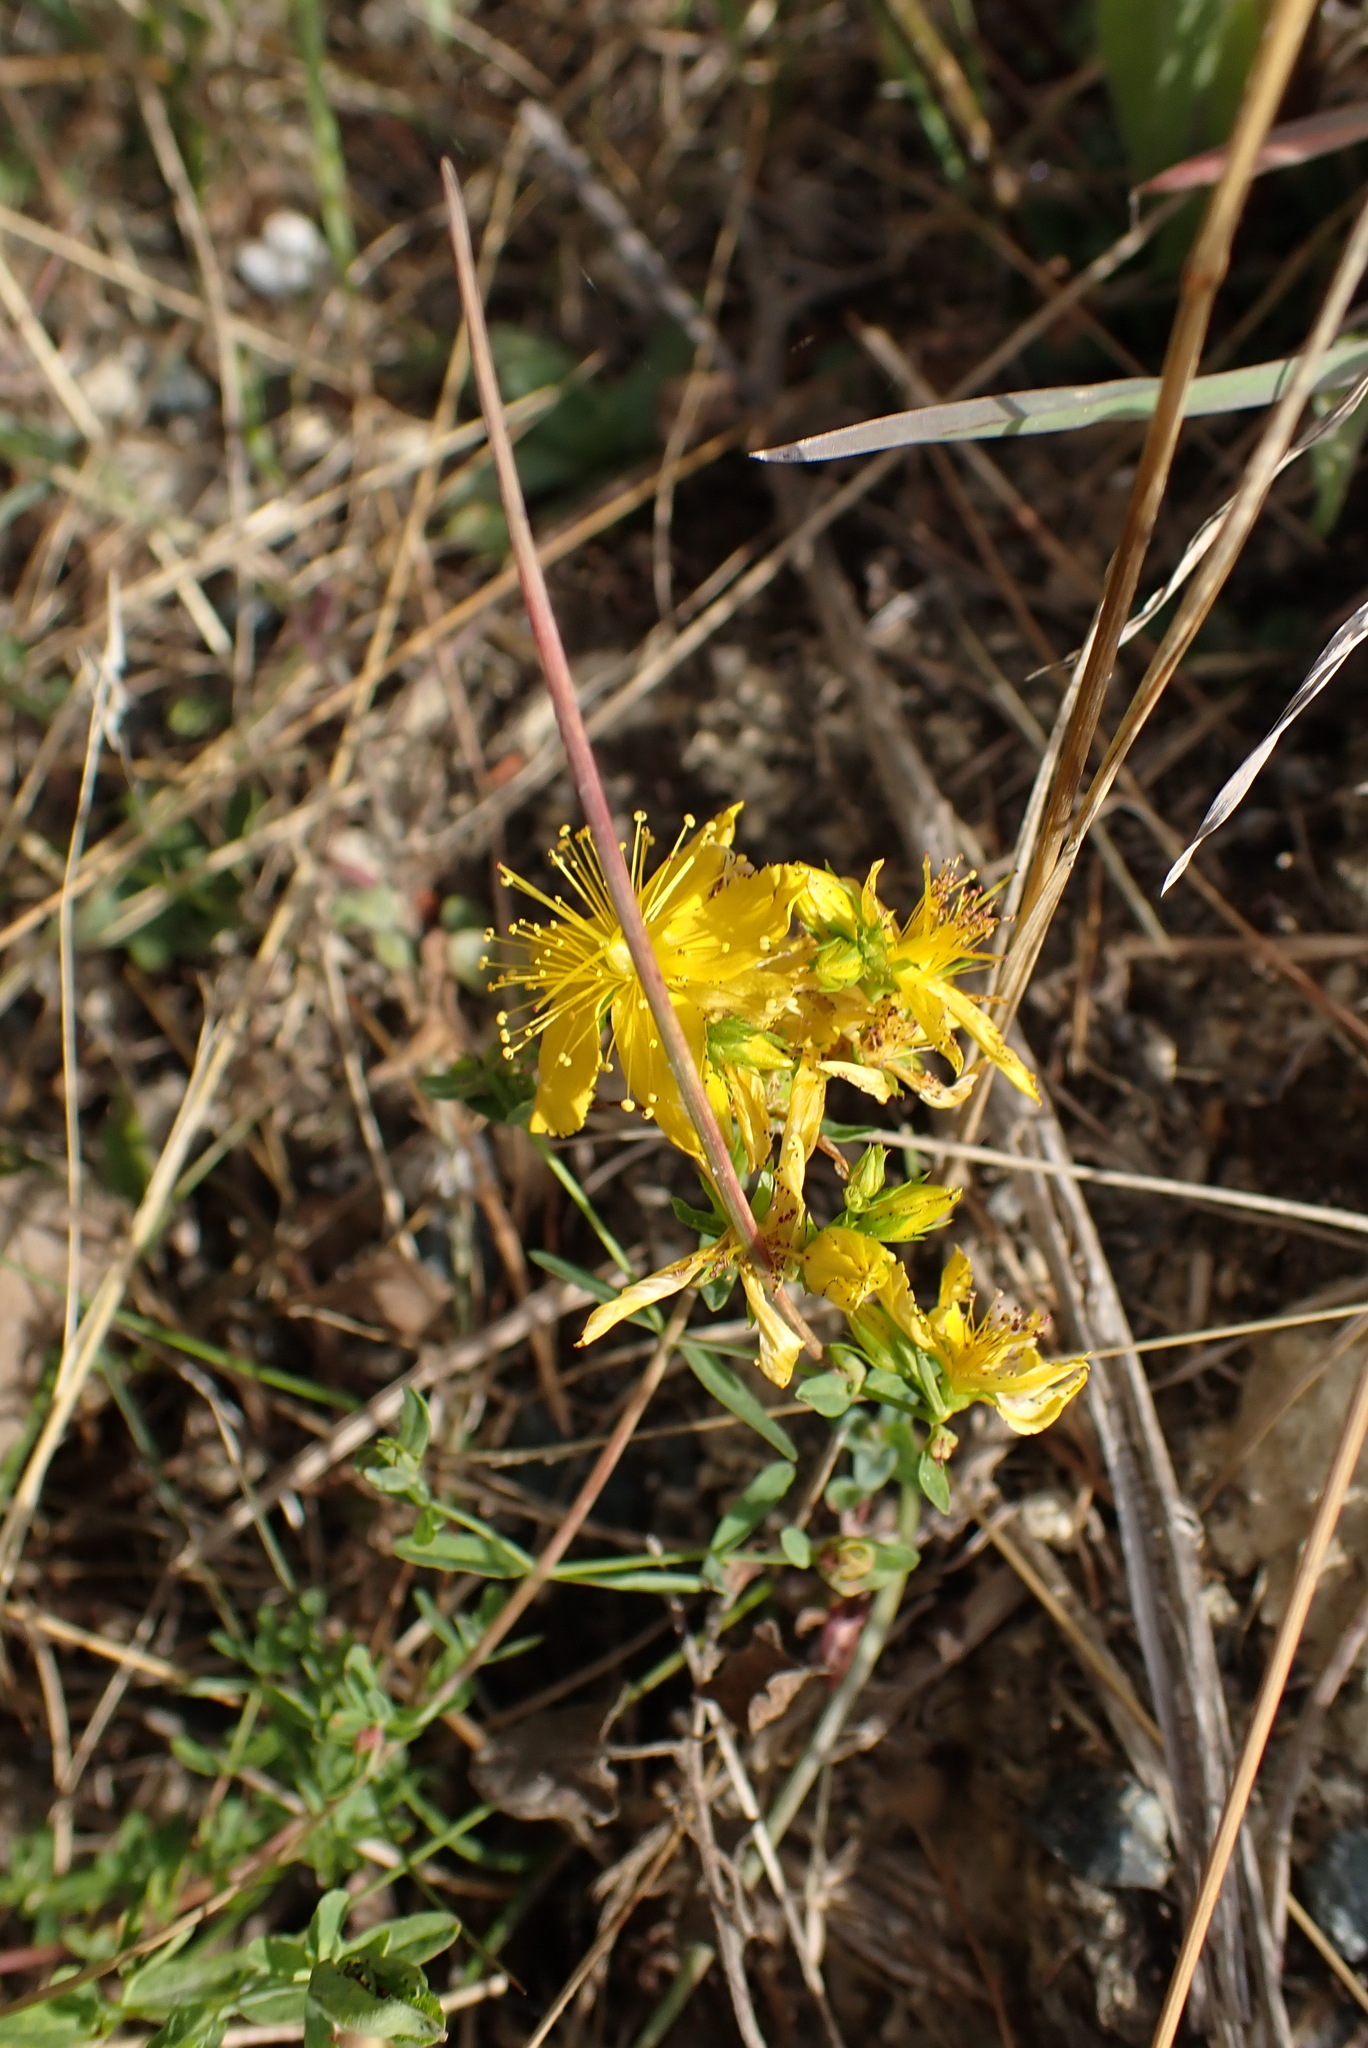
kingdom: Plantae
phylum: Tracheophyta
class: Magnoliopsida
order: Malpighiales
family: Hypericaceae
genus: Hypericum
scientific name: Hypericum perforatum
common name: Common st. johnswort
